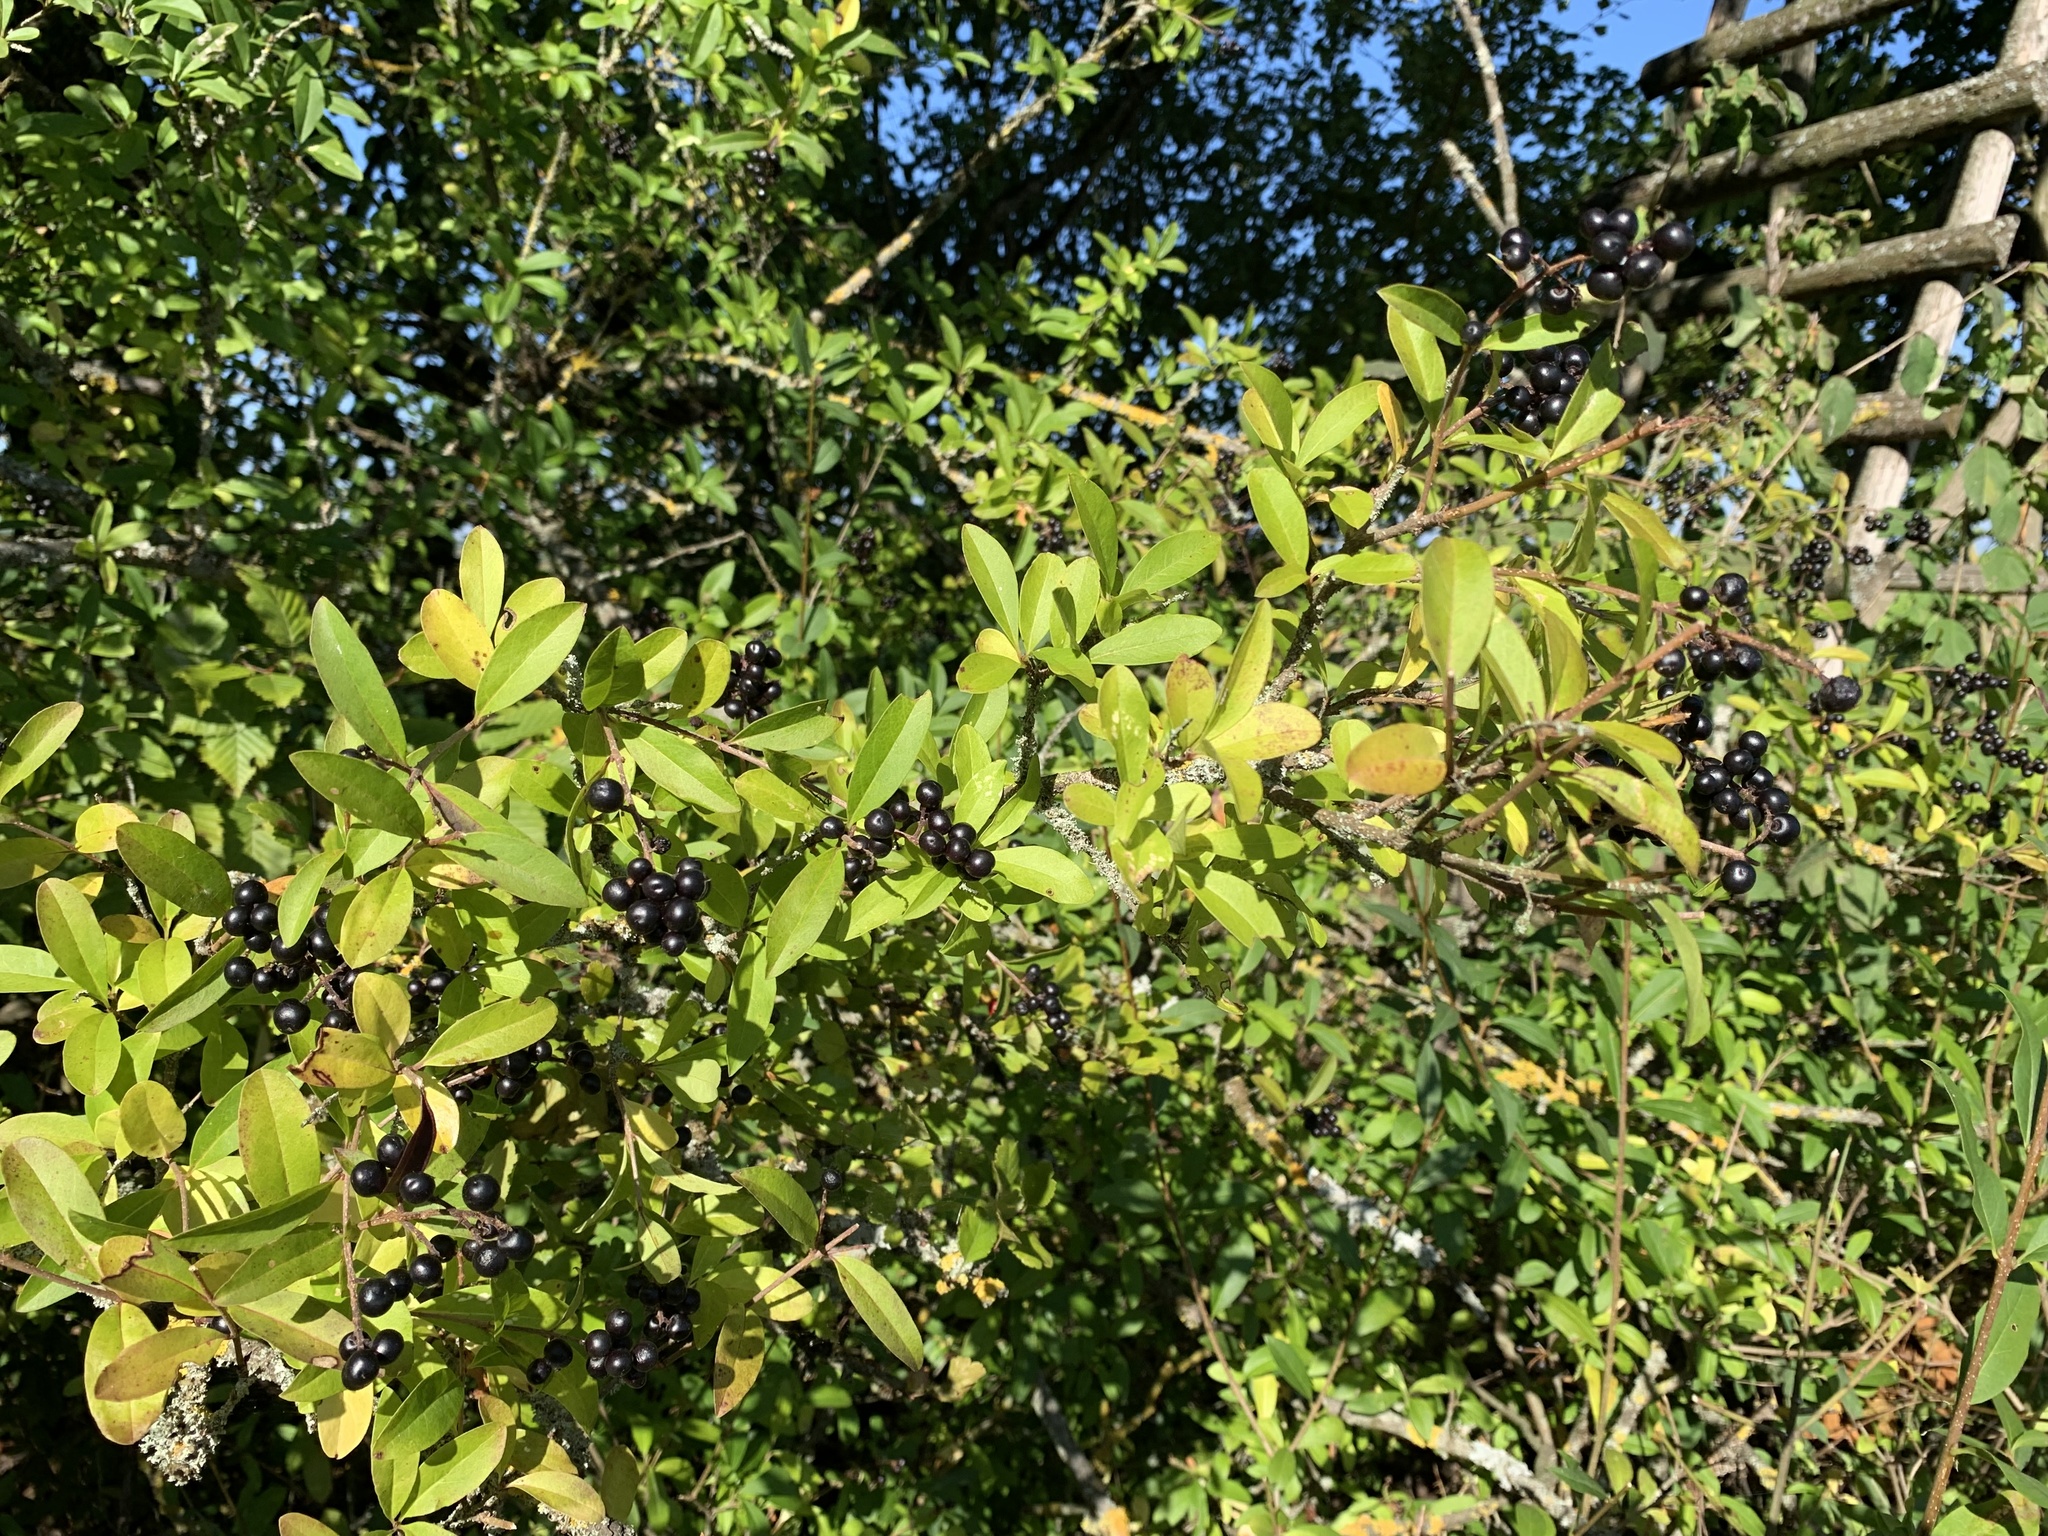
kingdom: Plantae
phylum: Tracheophyta
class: Magnoliopsida
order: Lamiales
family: Oleaceae
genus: Ligustrum
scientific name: Ligustrum vulgare
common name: Wild privet
